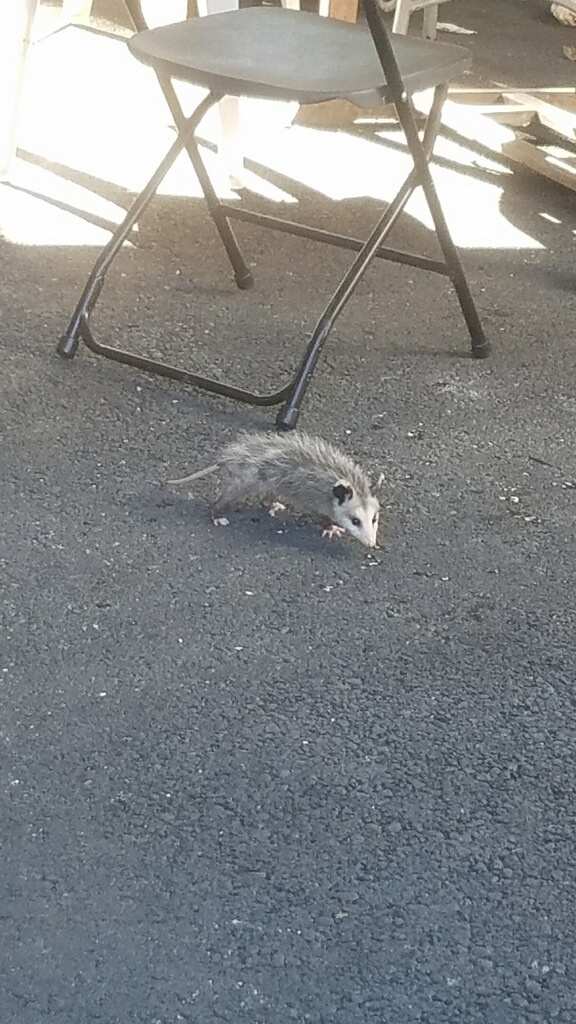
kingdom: Animalia
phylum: Chordata
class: Mammalia
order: Didelphimorphia
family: Didelphidae
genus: Didelphis
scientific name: Didelphis virginiana
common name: Virginia opossum
